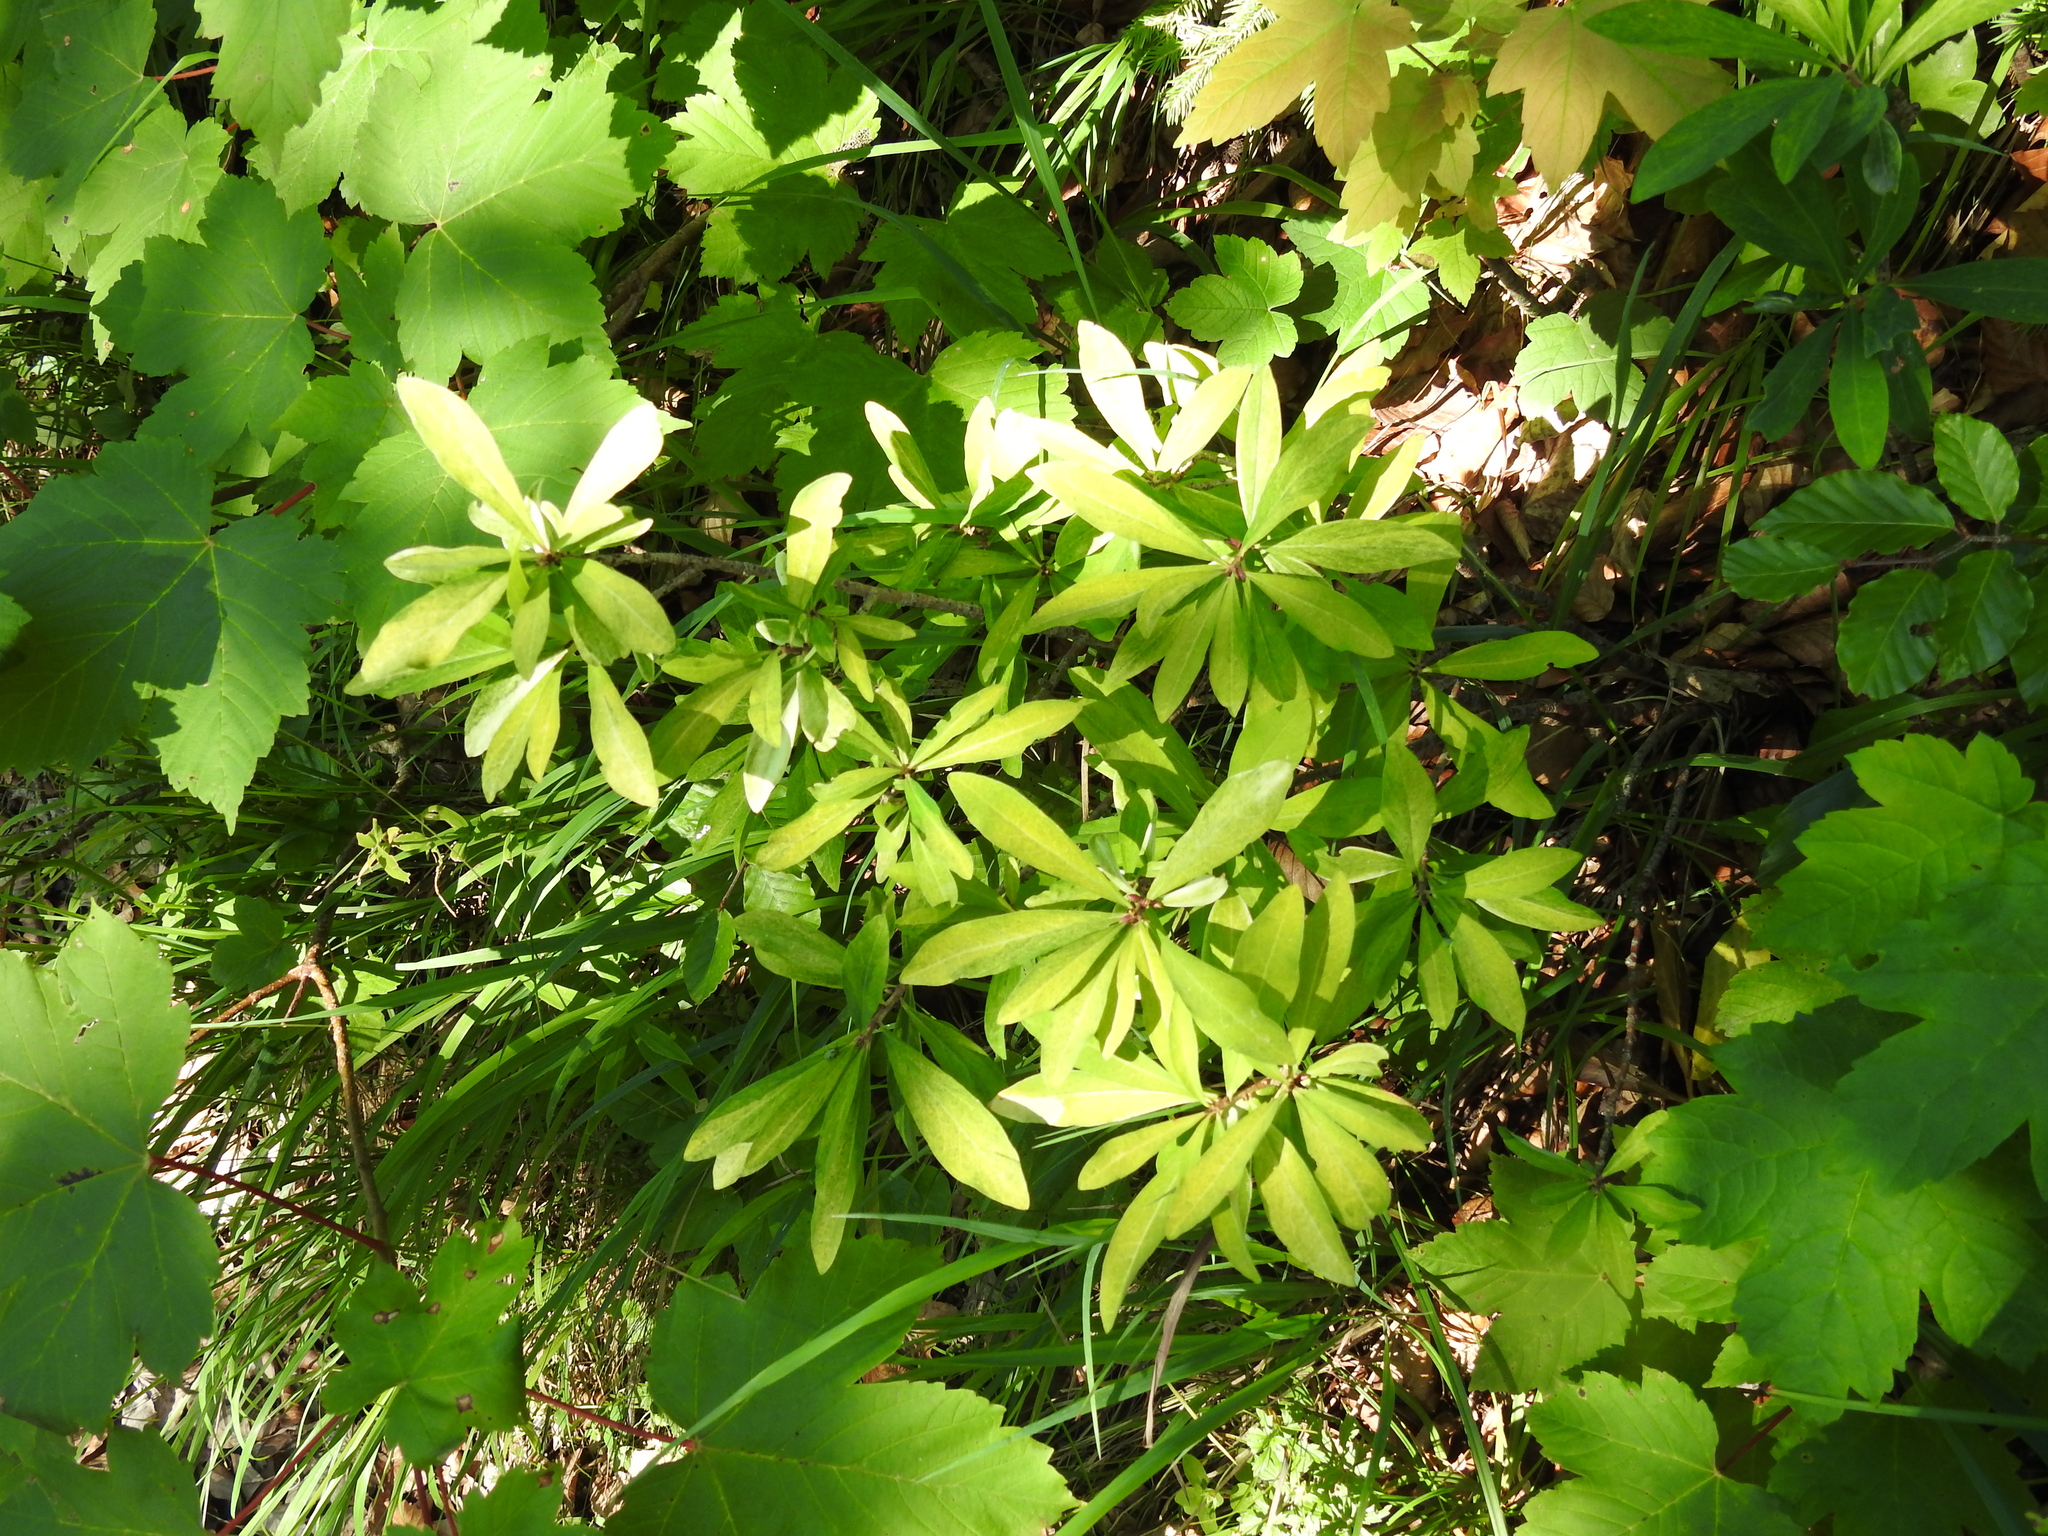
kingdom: Plantae
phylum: Tracheophyta
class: Magnoliopsida
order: Malvales
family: Thymelaeaceae
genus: Daphne
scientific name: Daphne mezereum
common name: Mezereon
